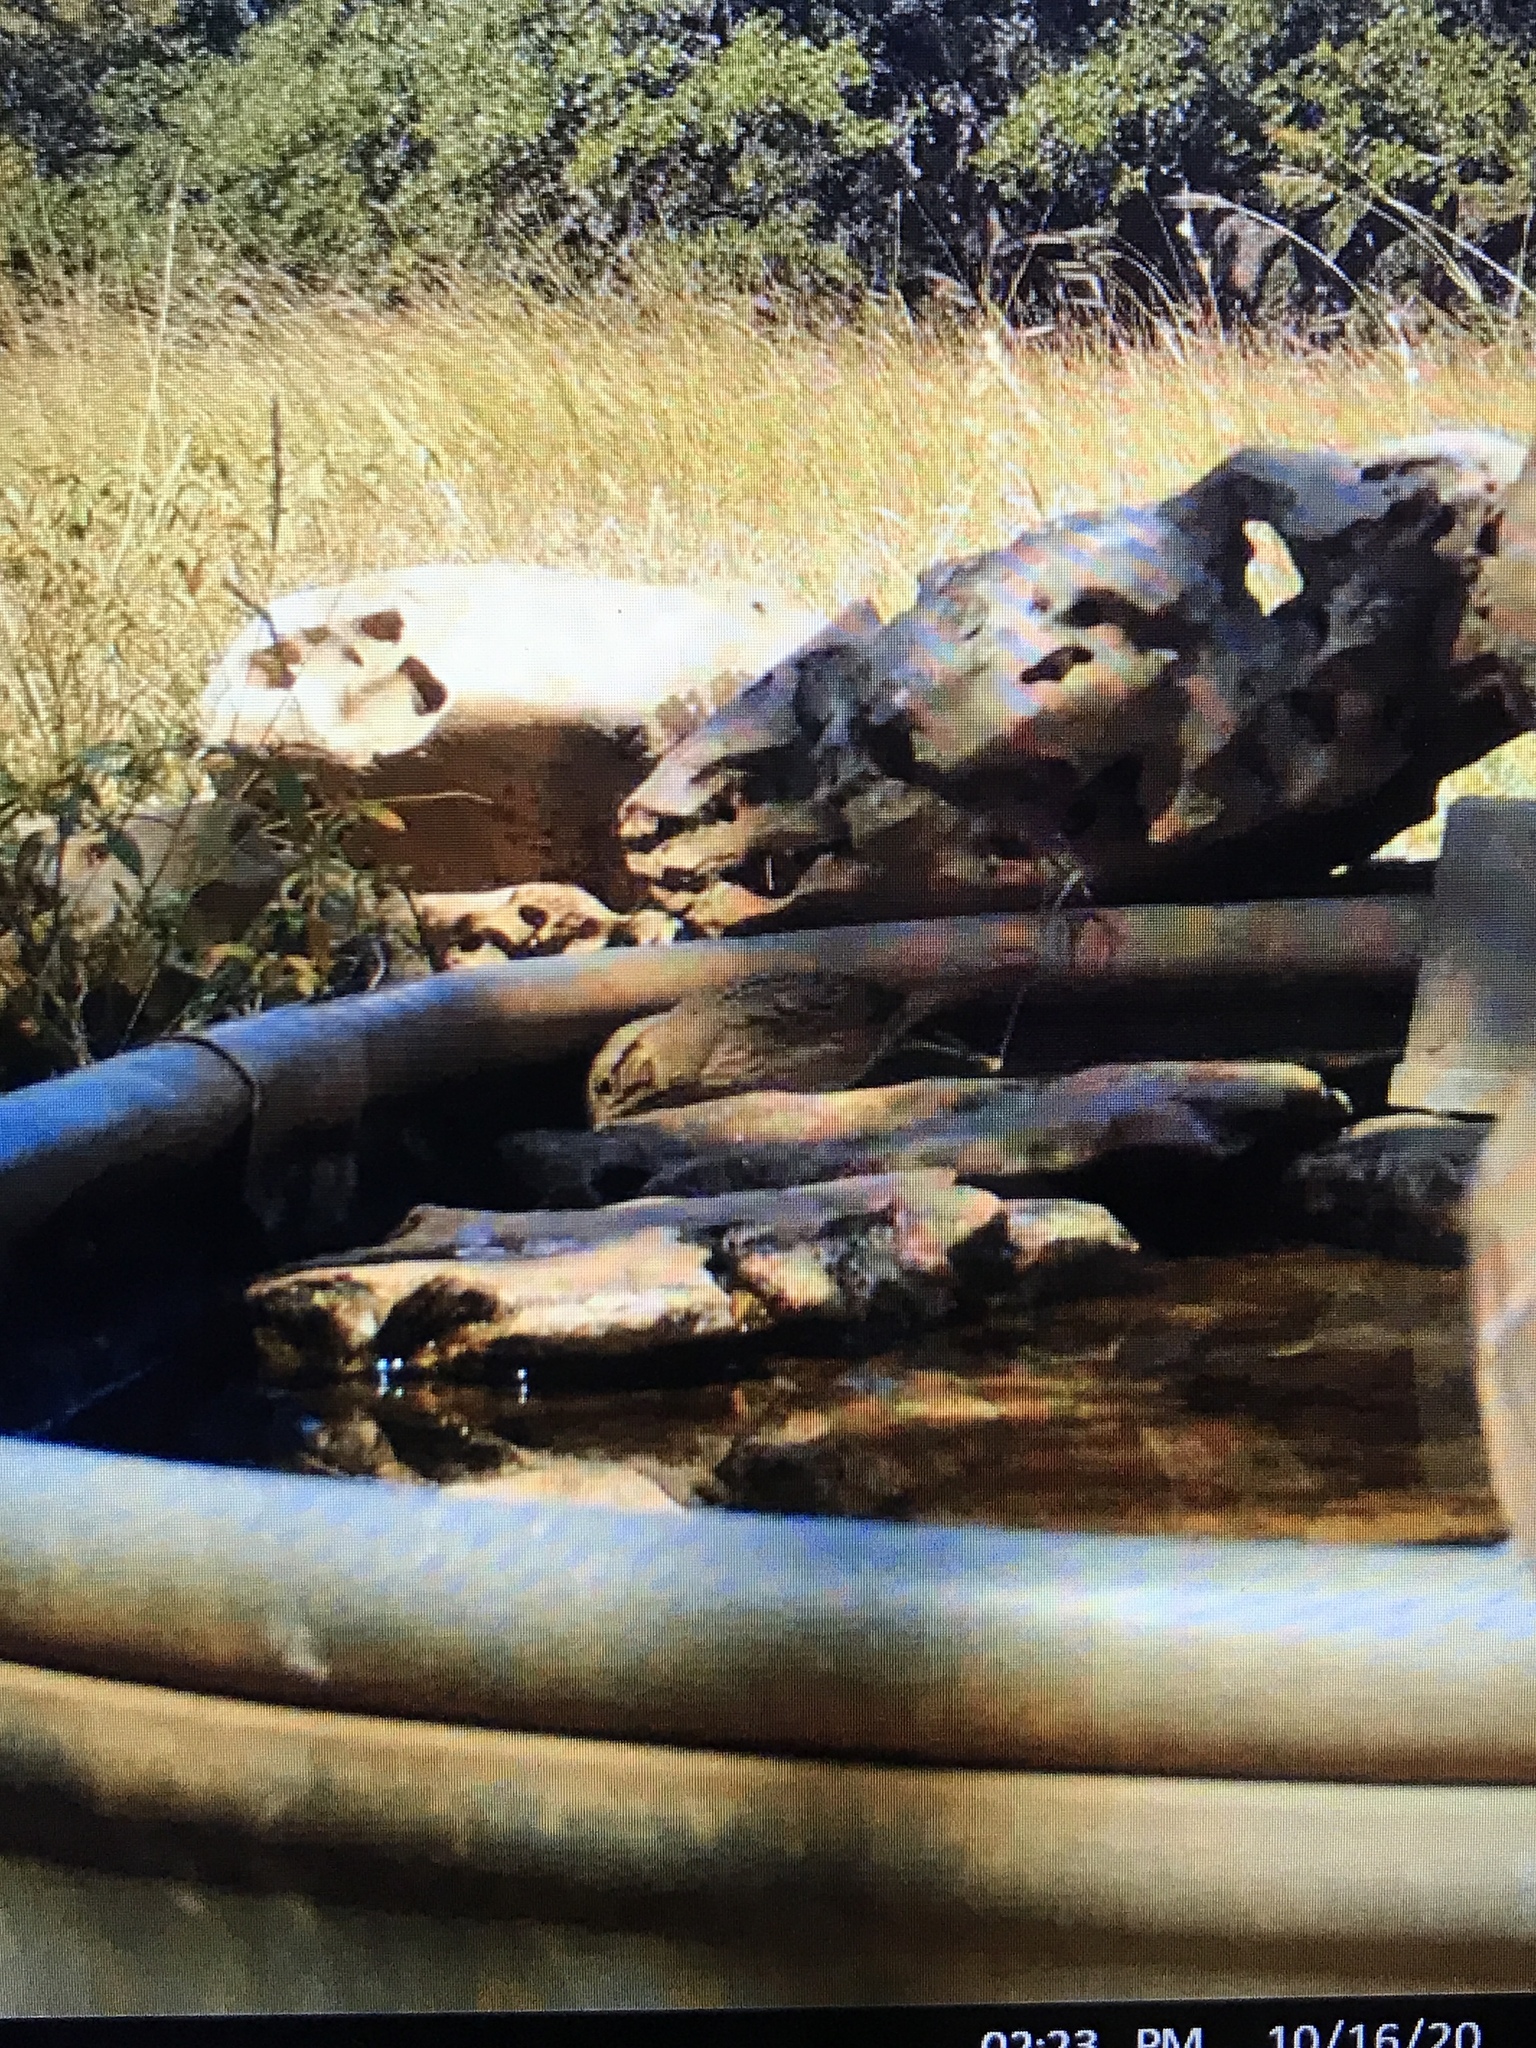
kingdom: Animalia
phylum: Chordata
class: Aves
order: Passeriformes
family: Passerellidae
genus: Melospiza
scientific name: Melospiza lincolnii
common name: Lincoln's sparrow
